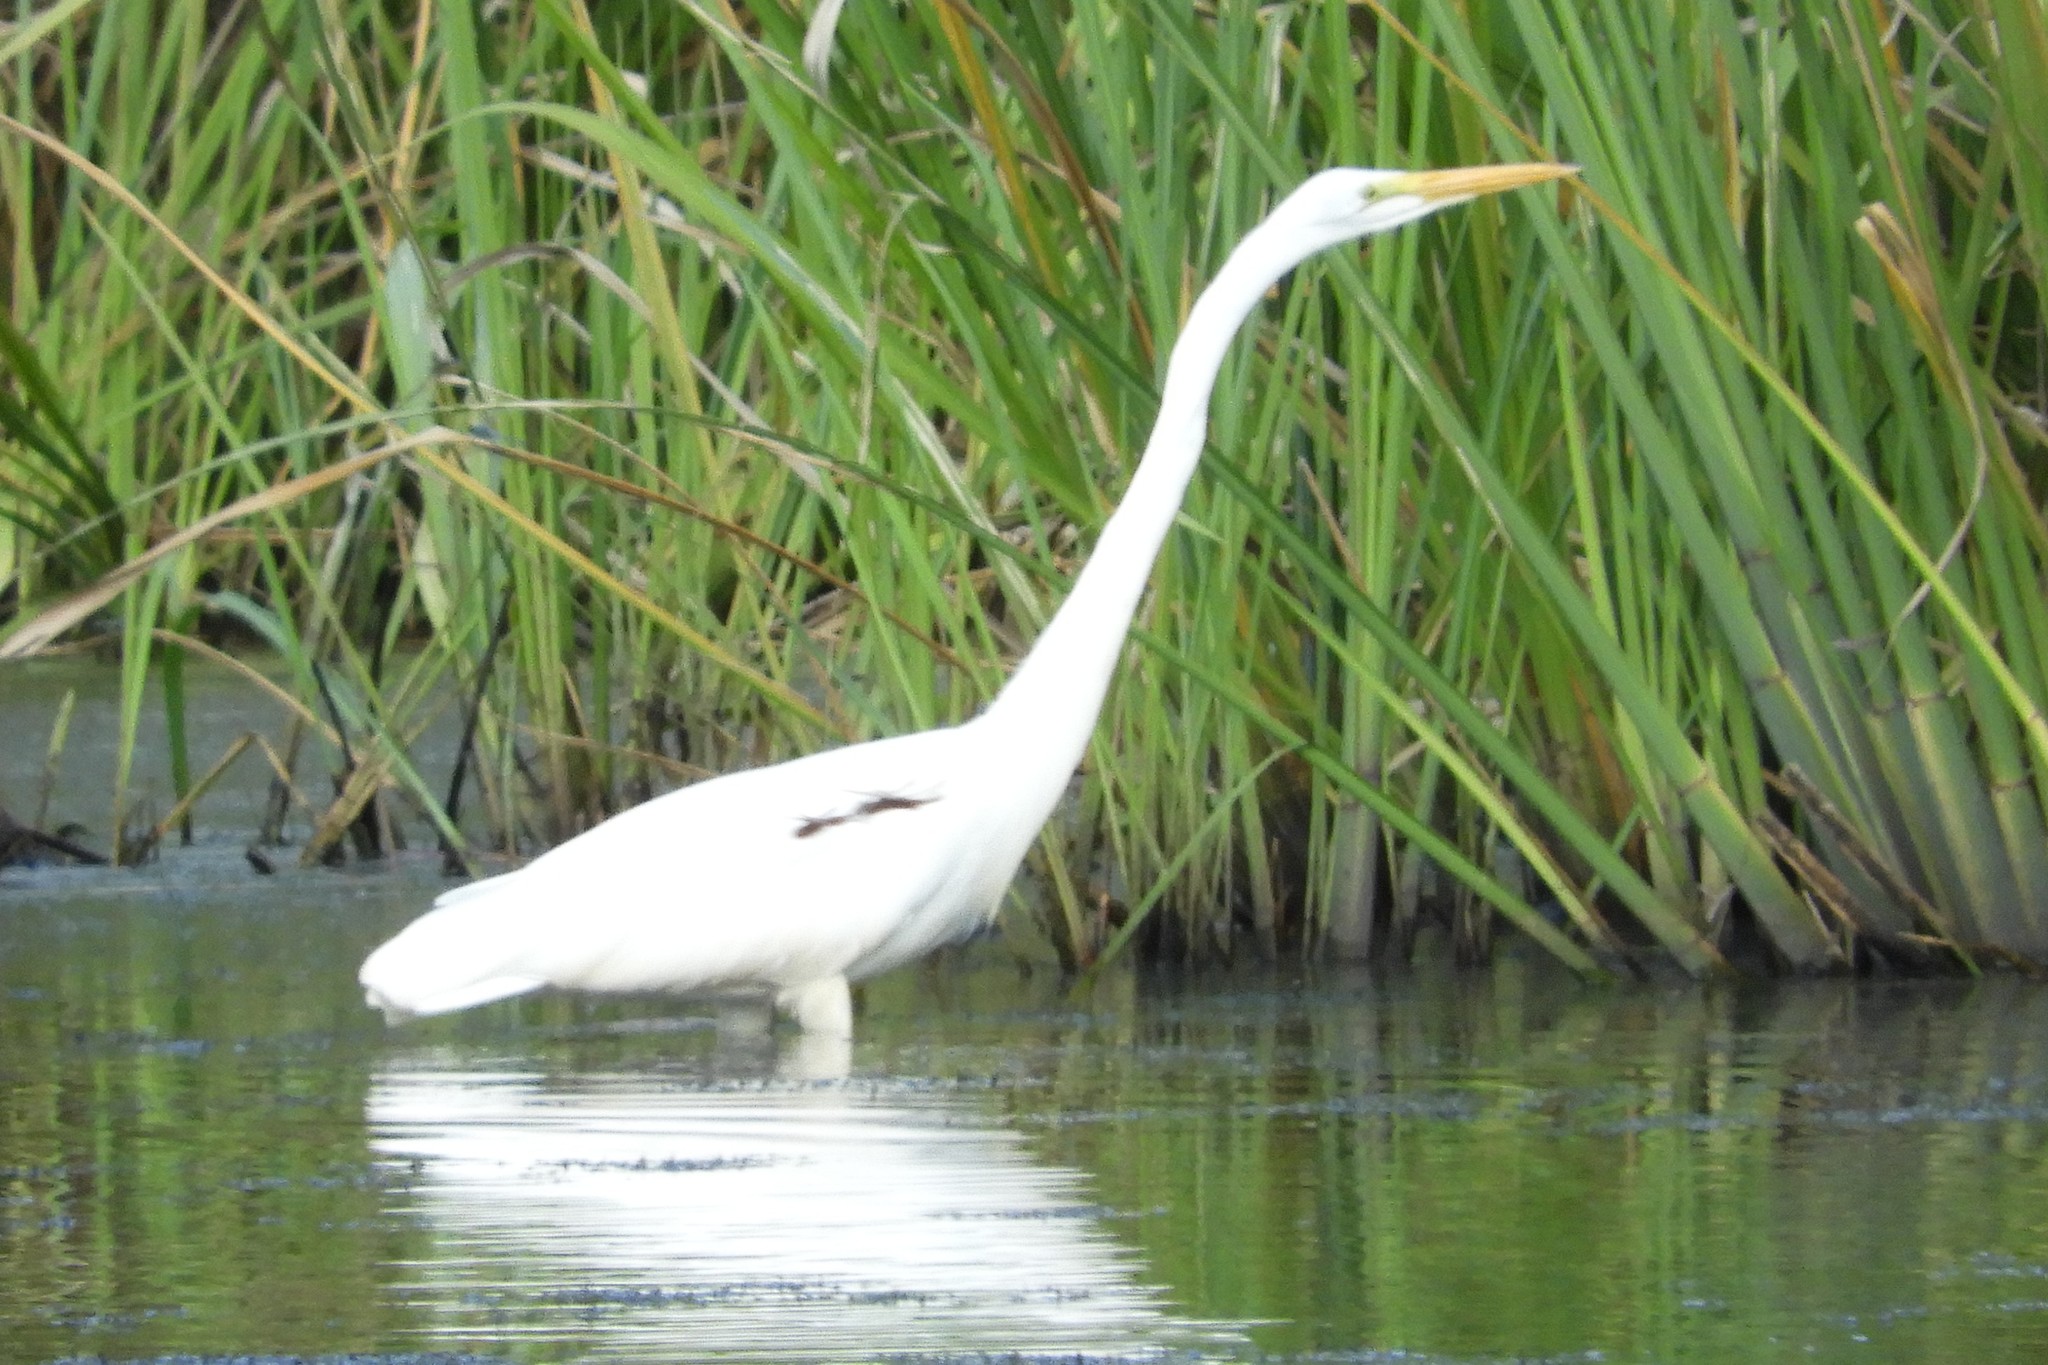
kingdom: Animalia
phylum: Chordata
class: Aves
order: Pelecaniformes
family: Ardeidae
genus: Ardea
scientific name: Ardea alba
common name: Great egret
